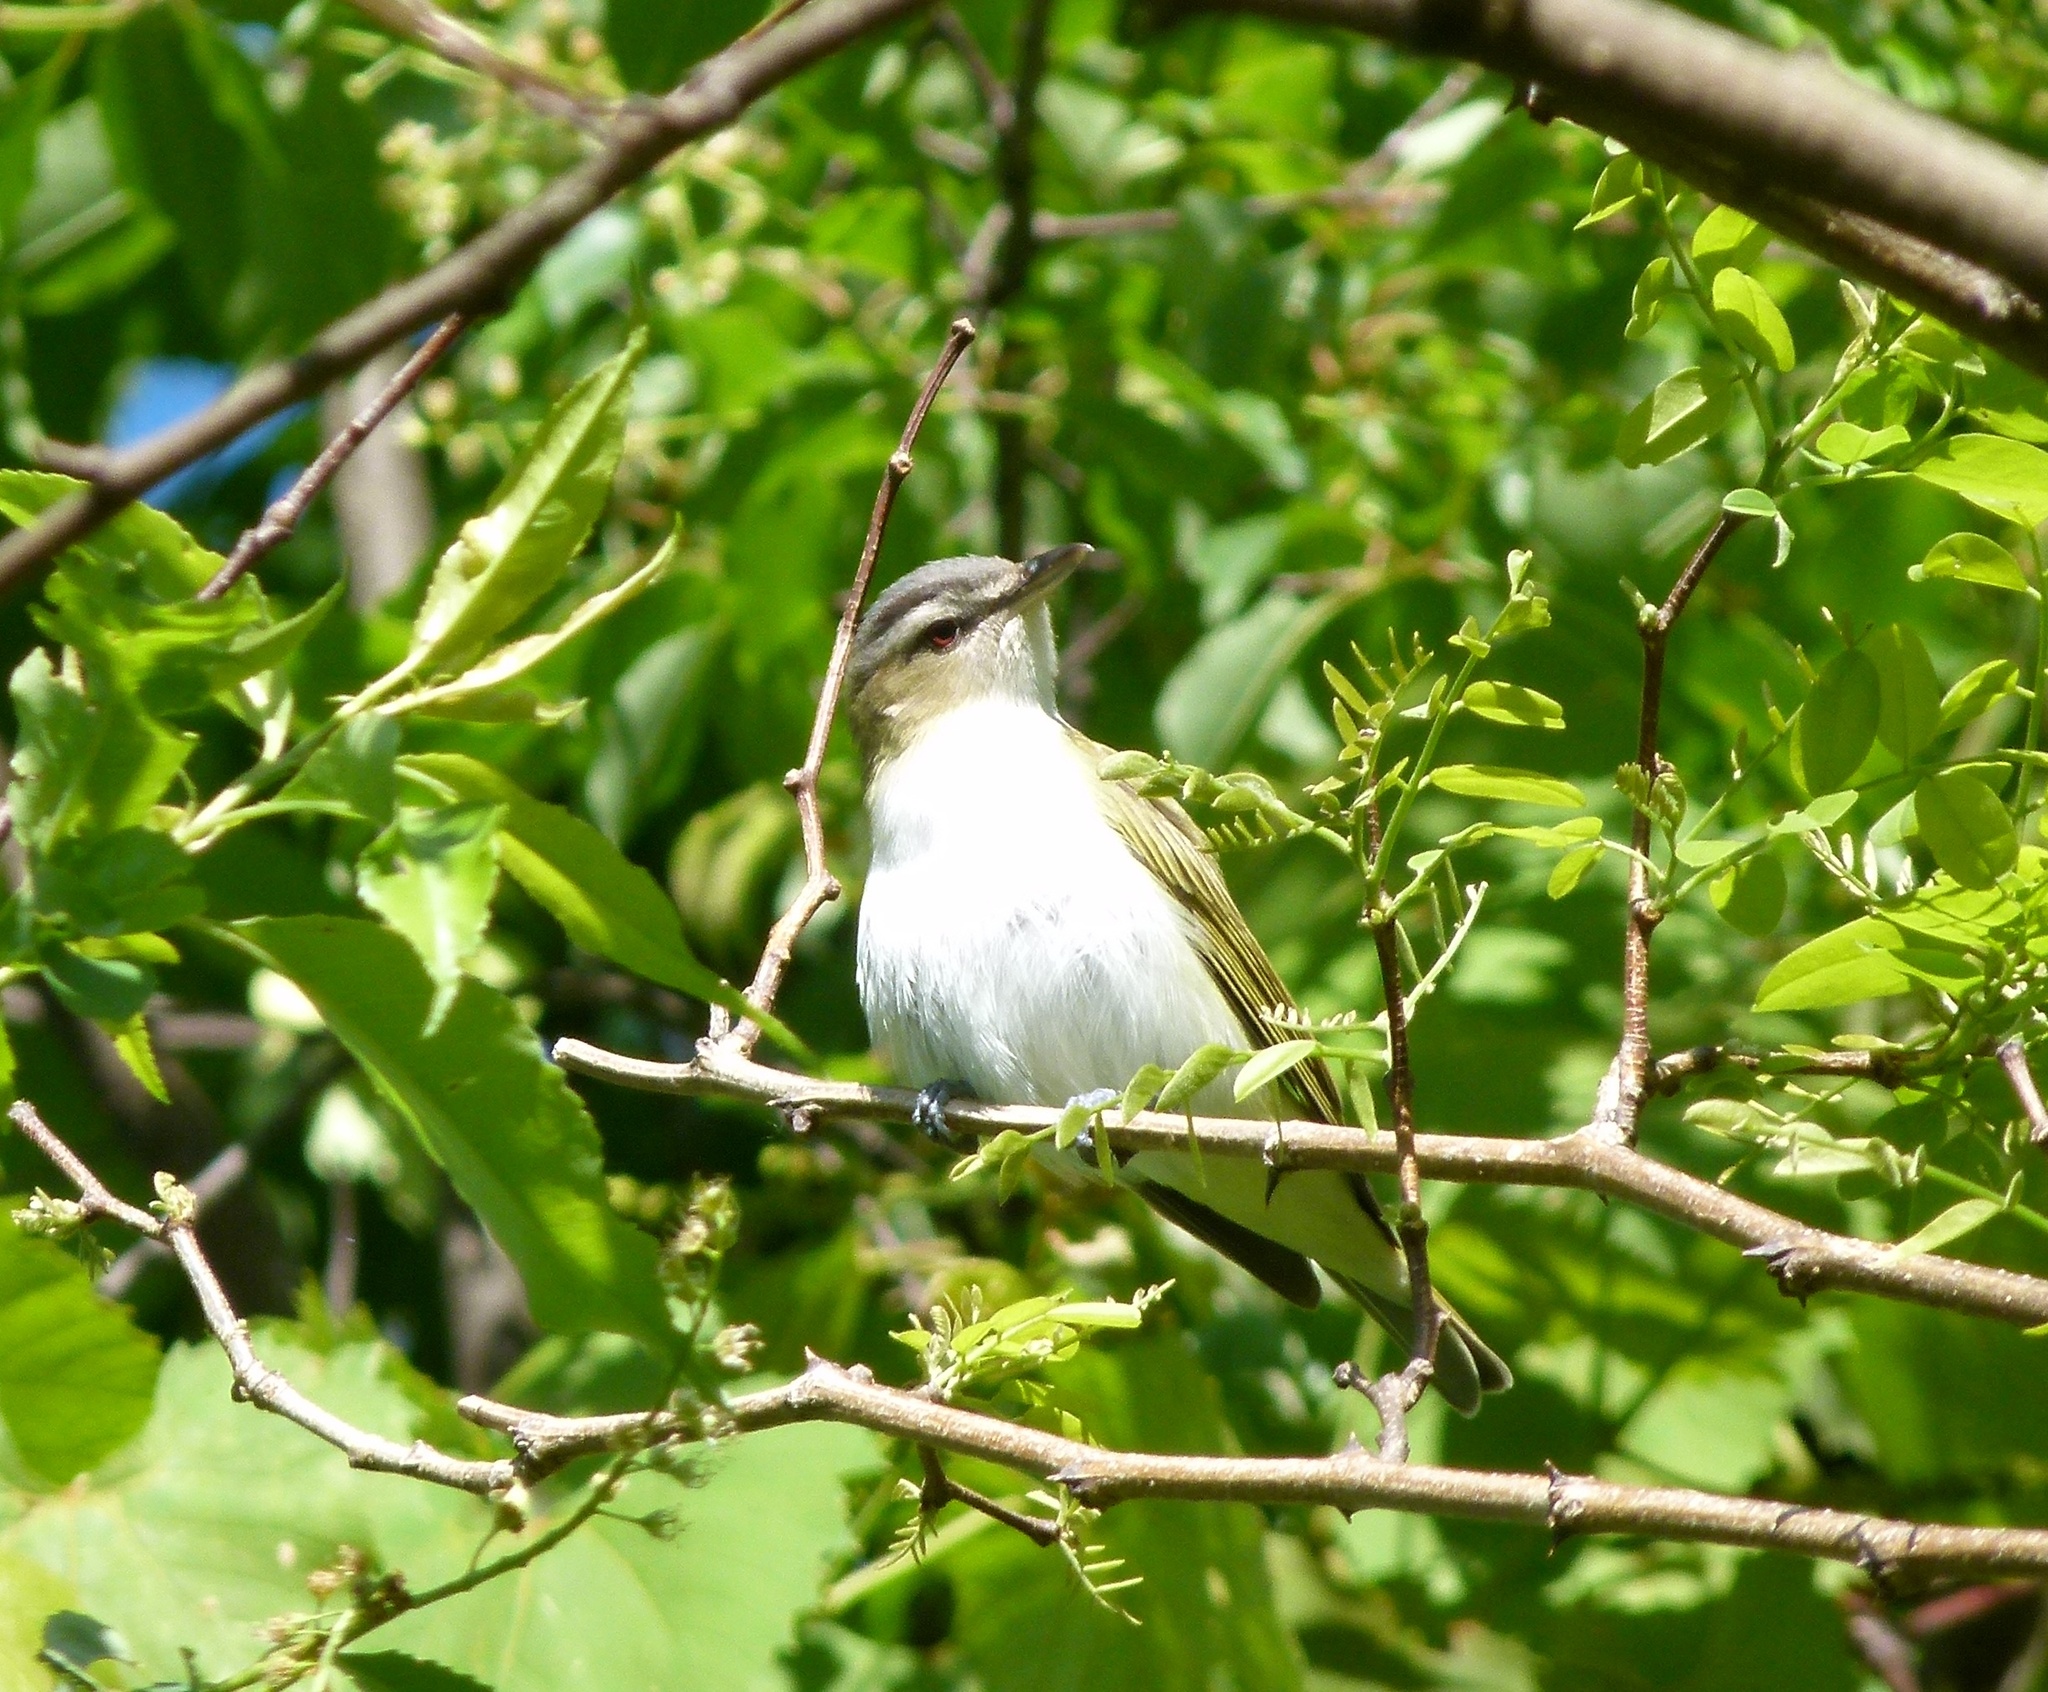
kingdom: Animalia
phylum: Chordata
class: Aves
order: Passeriformes
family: Vireonidae
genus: Vireo
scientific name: Vireo olivaceus
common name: Red-eyed vireo
